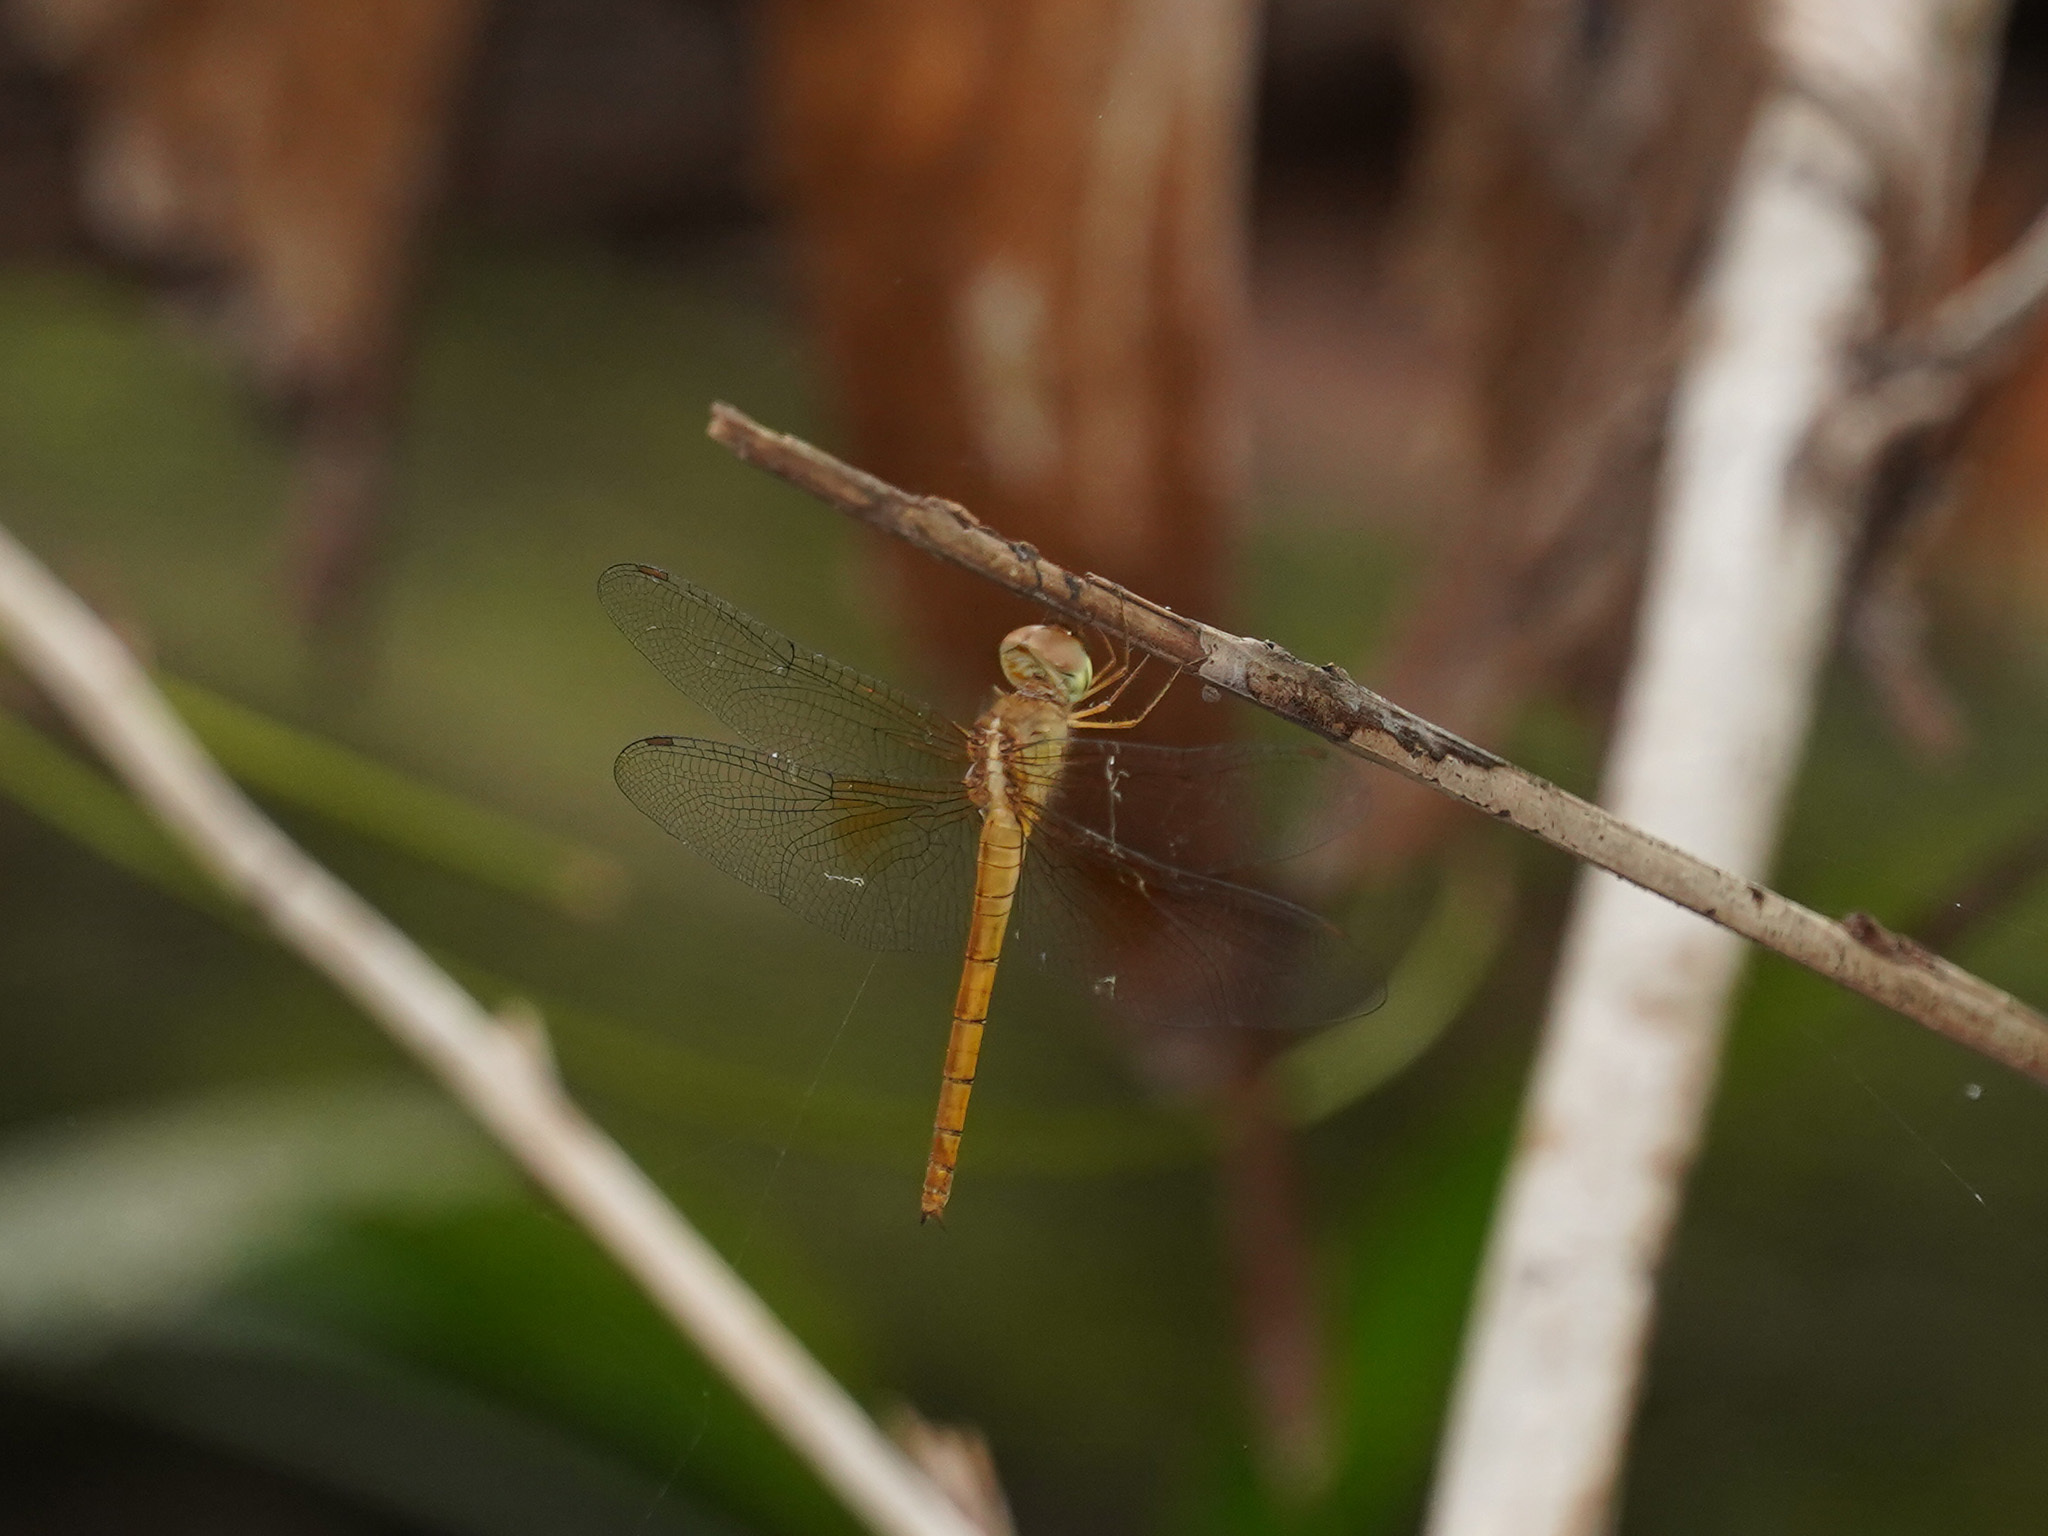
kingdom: Animalia
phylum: Arthropoda
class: Insecta
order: Odonata
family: Libellulidae
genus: Tholymis
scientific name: Tholymis tillarga
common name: Coral-tailed cloud wing
